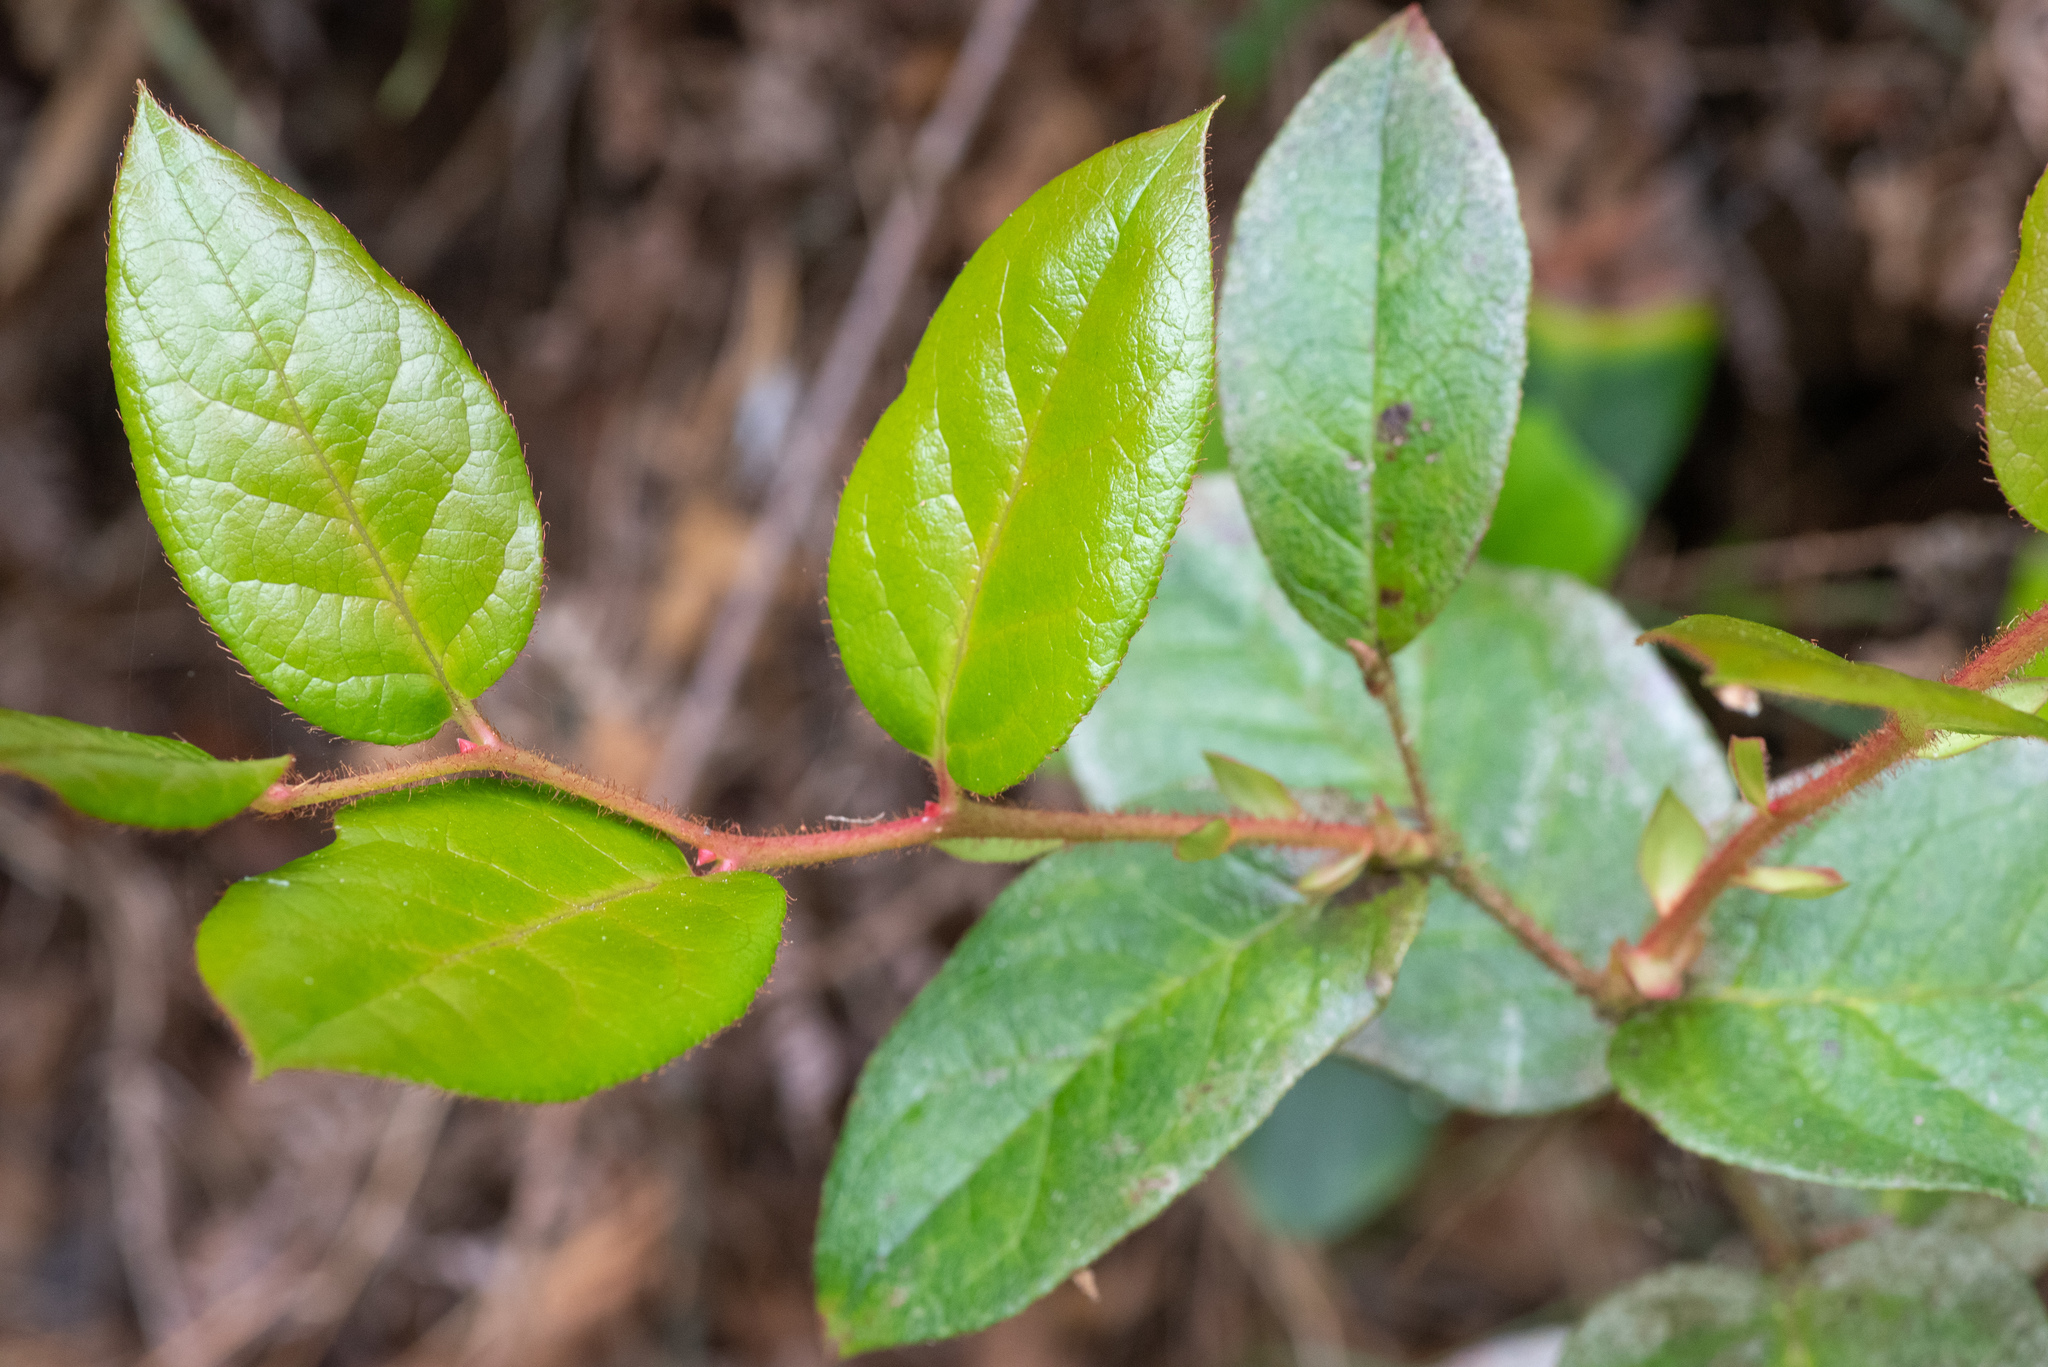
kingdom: Plantae
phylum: Tracheophyta
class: Magnoliopsida
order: Ericales
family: Ericaceae
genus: Gaultheria
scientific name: Gaultheria shallon
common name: Shallon
